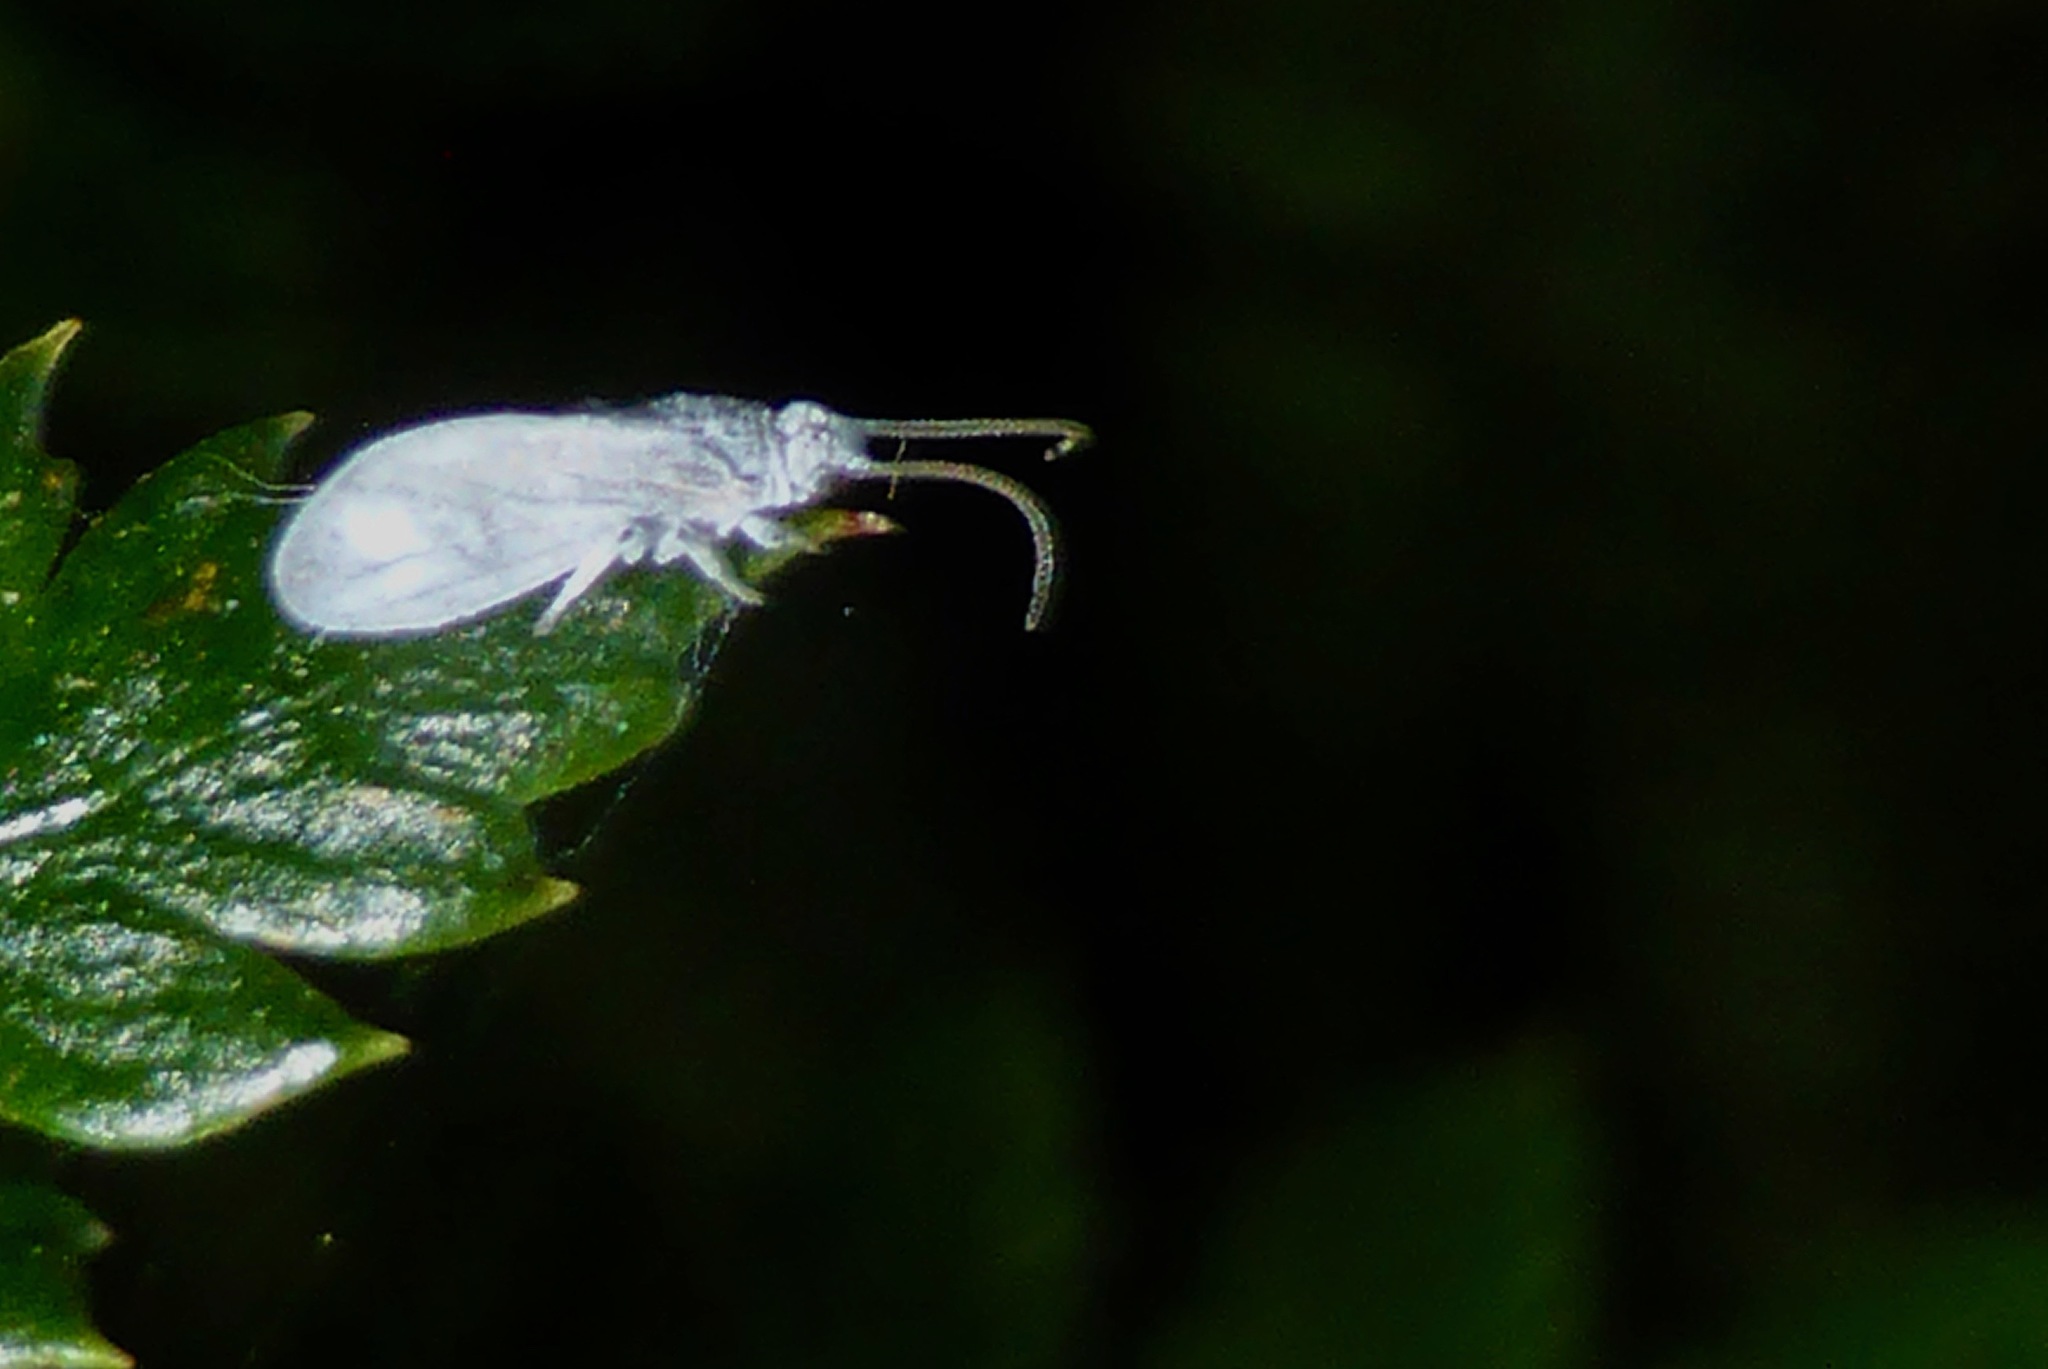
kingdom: Animalia
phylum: Arthropoda
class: Insecta
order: Neuroptera
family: Coniopterygidae
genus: Cryptoscenea
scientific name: Cryptoscenea australiensis
